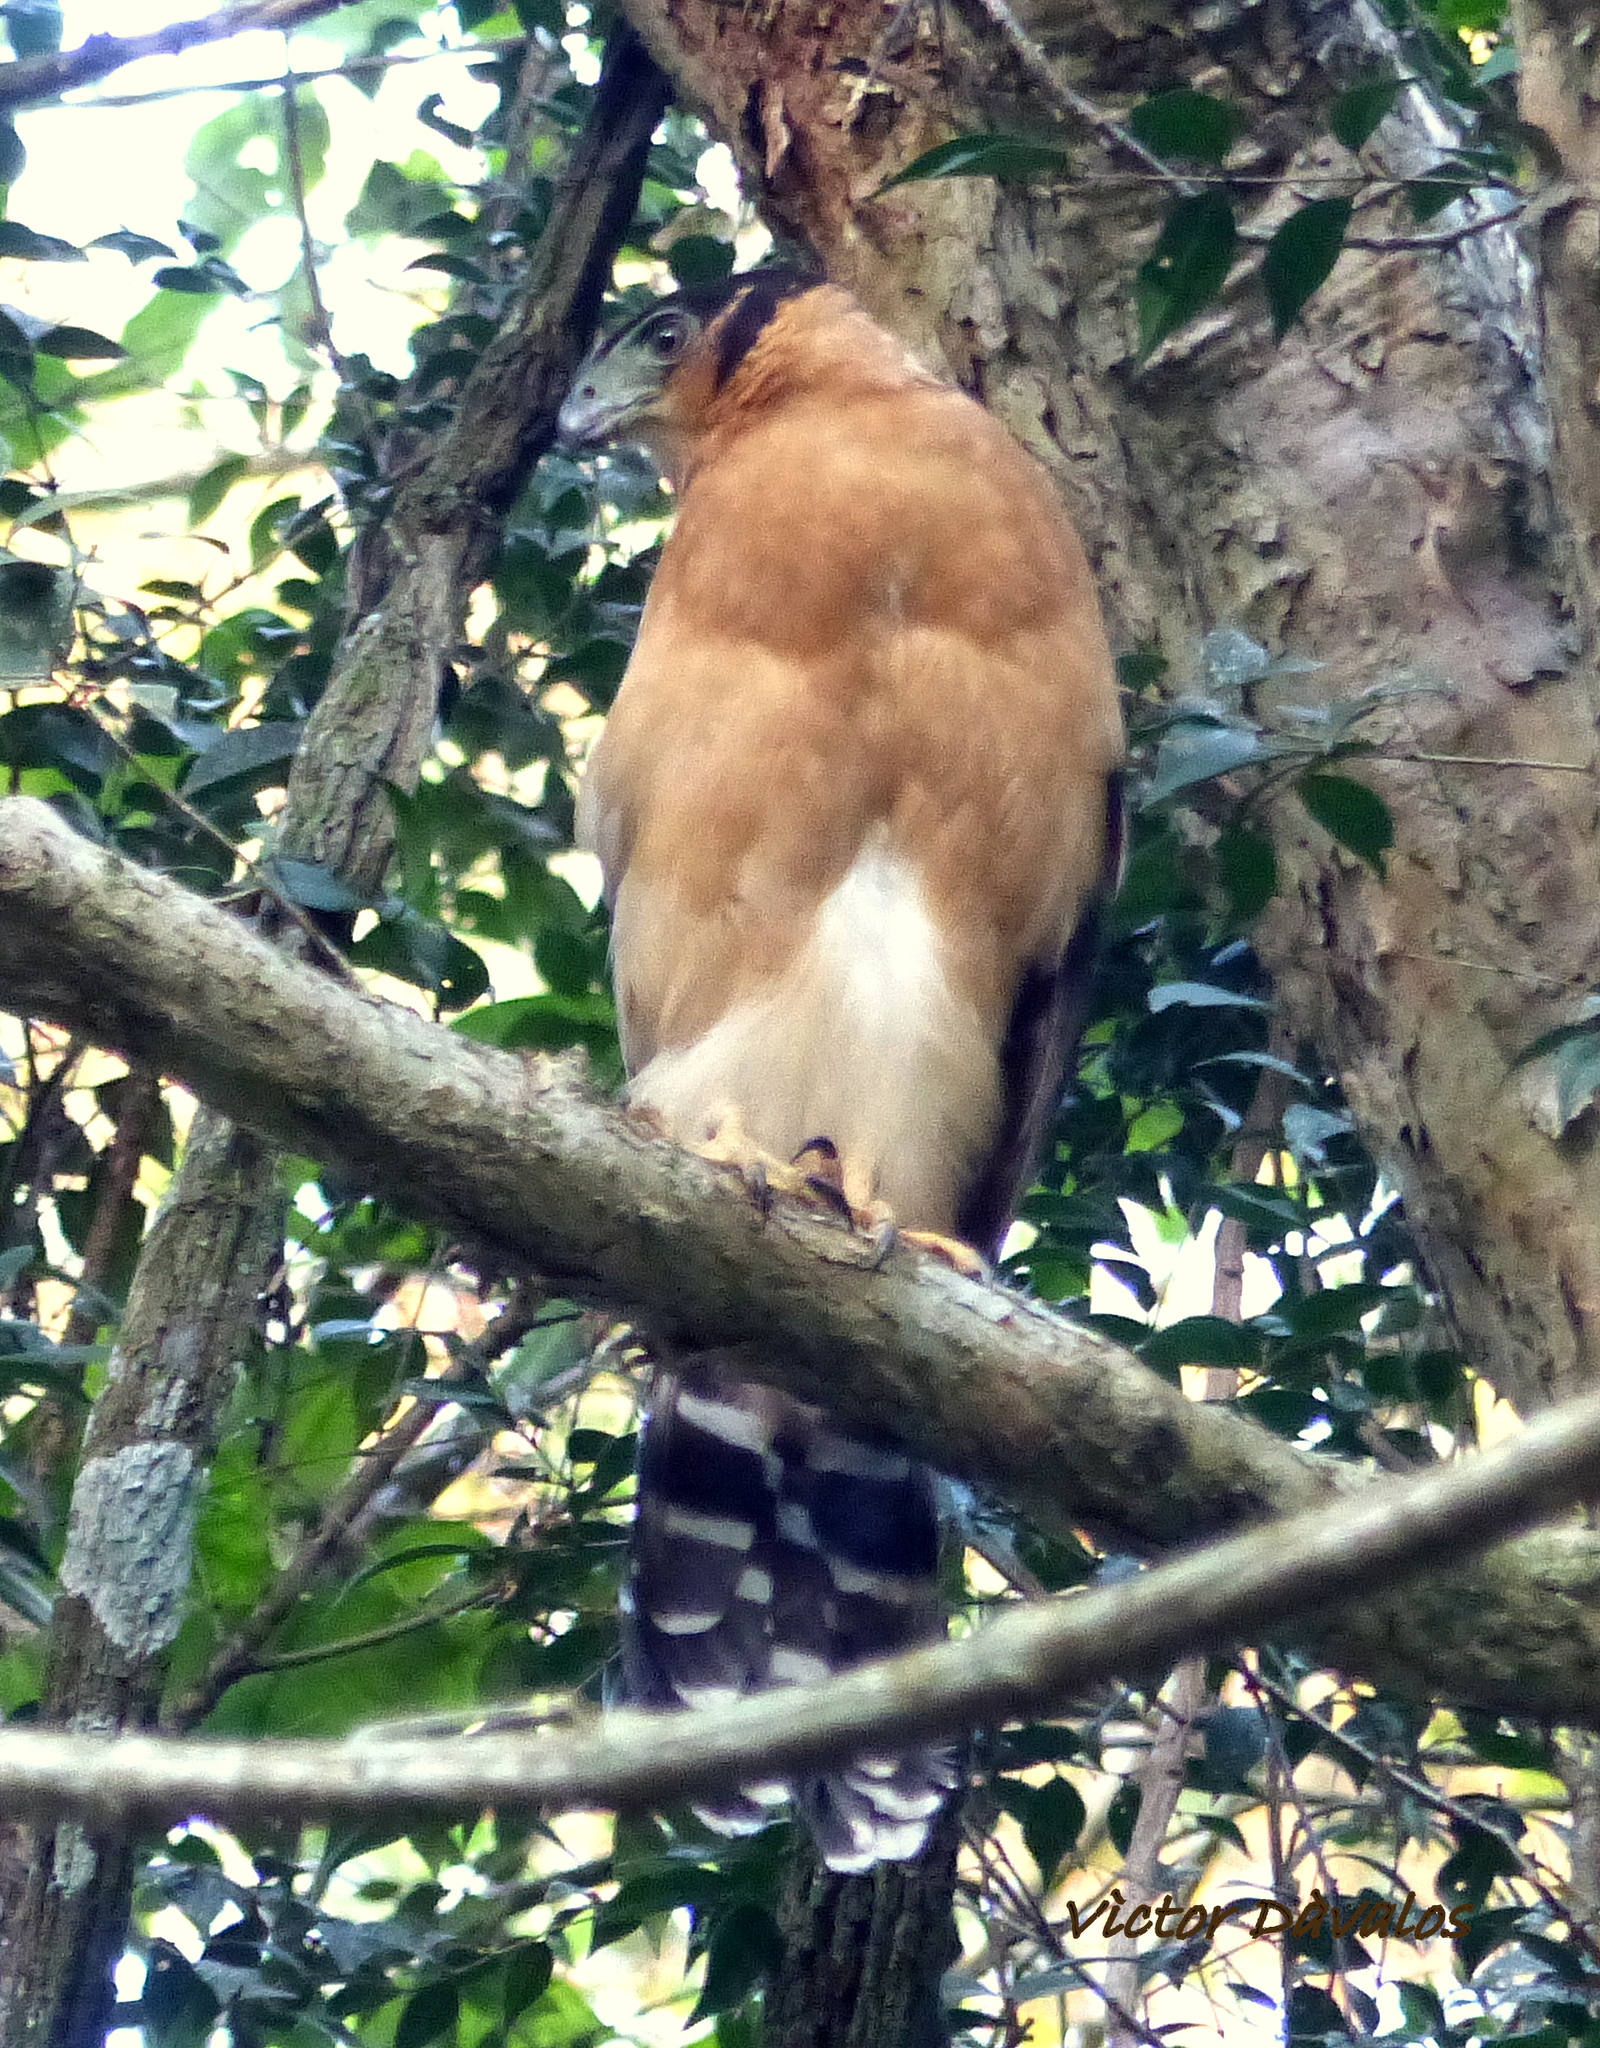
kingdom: Animalia
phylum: Chordata
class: Aves
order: Falconiformes
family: Falconidae
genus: Micrastur
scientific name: Micrastur semitorquatus
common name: Collared forest-falcon
